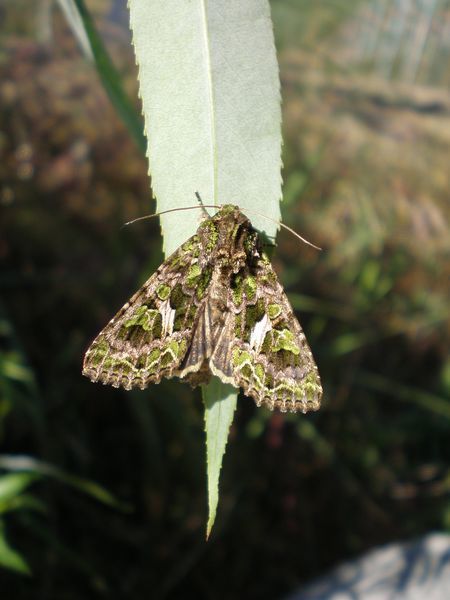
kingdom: Animalia
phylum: Arthropoda
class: Insecta
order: Lepidoptera
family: Noctuidae
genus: Trachea
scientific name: Trachea atriplicis
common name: Orache moth
